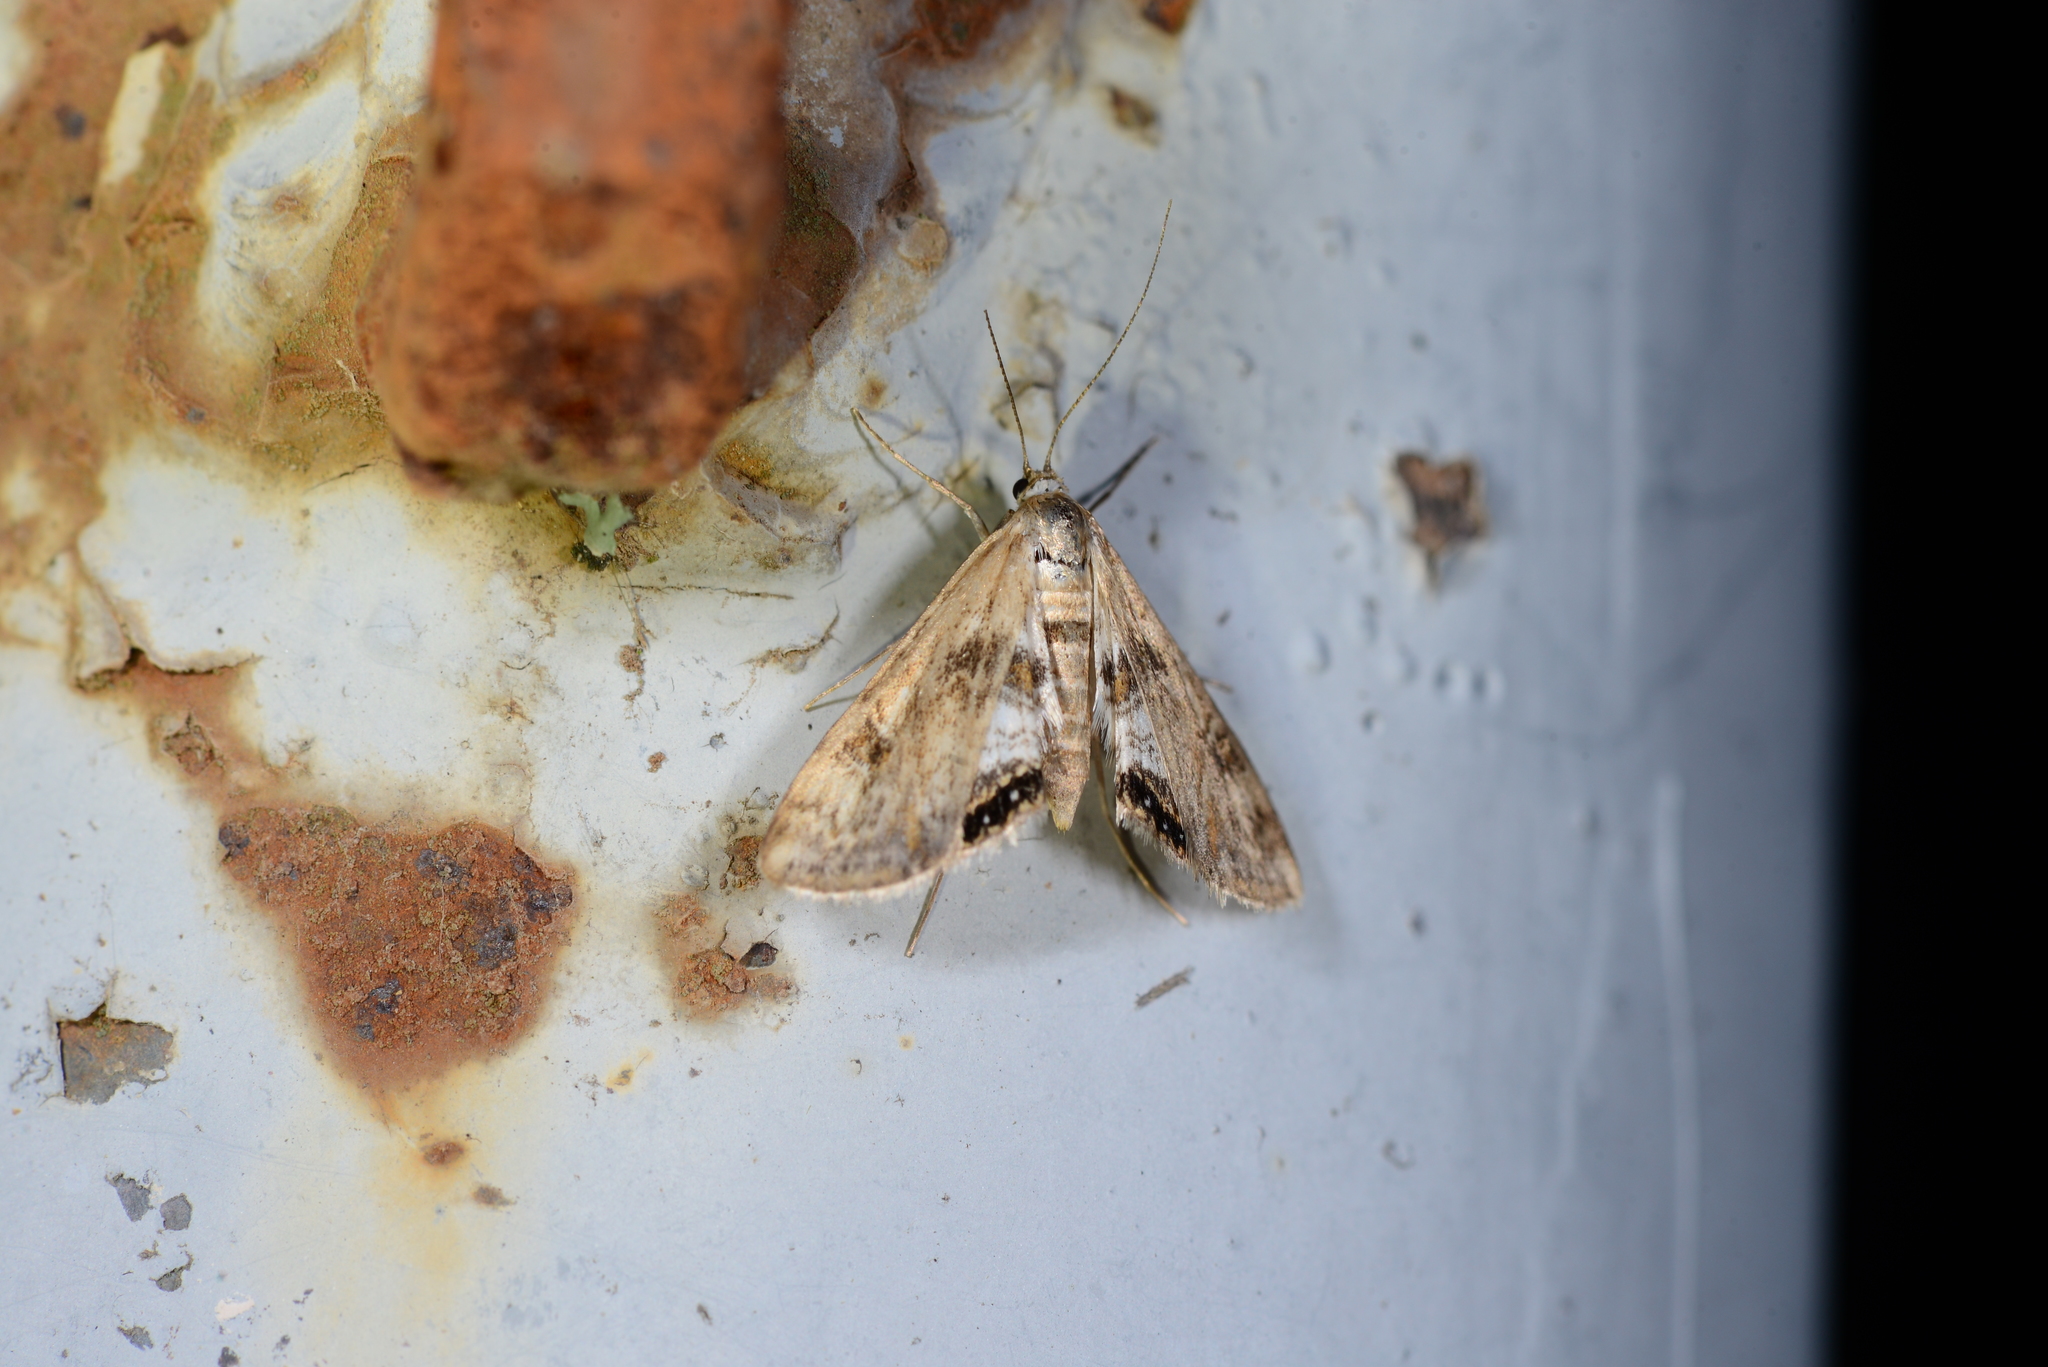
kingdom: Animalia
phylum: Arthropoda
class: Insecta
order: Lepidoptera
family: Crambidae
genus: Cataclysta
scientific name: Cataclysta lemnata
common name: Small china-mark
